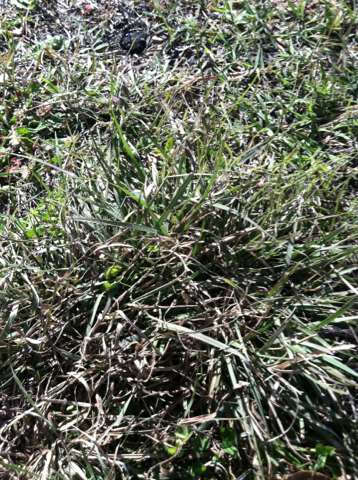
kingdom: Plantae
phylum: Tracheophyta
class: Liliopsida
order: Poales
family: Poaceae
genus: Bouteloua
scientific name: Bouteloua rigidiseta
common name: Texas grama
